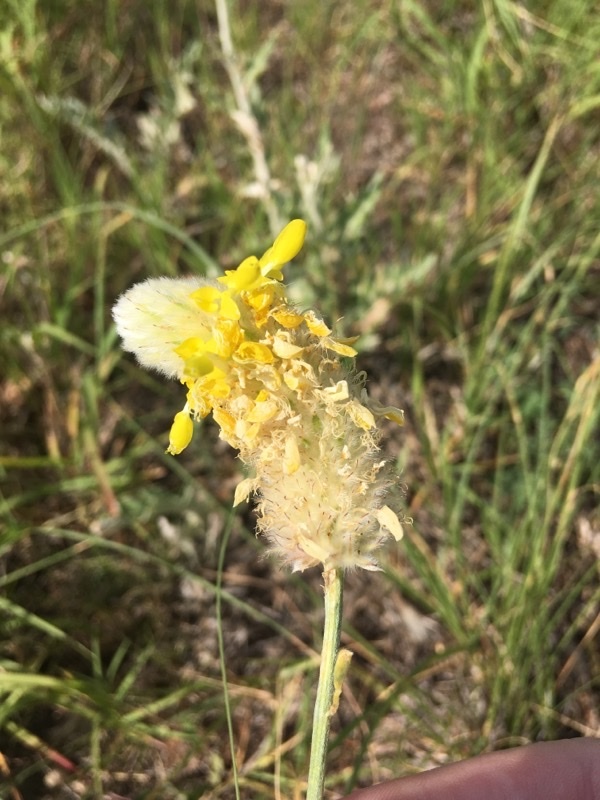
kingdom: Plantae
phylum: Tracheophyta
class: Magnoliopsida
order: Fabales
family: Fabaceae
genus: Dalea
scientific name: Dalea aurea
